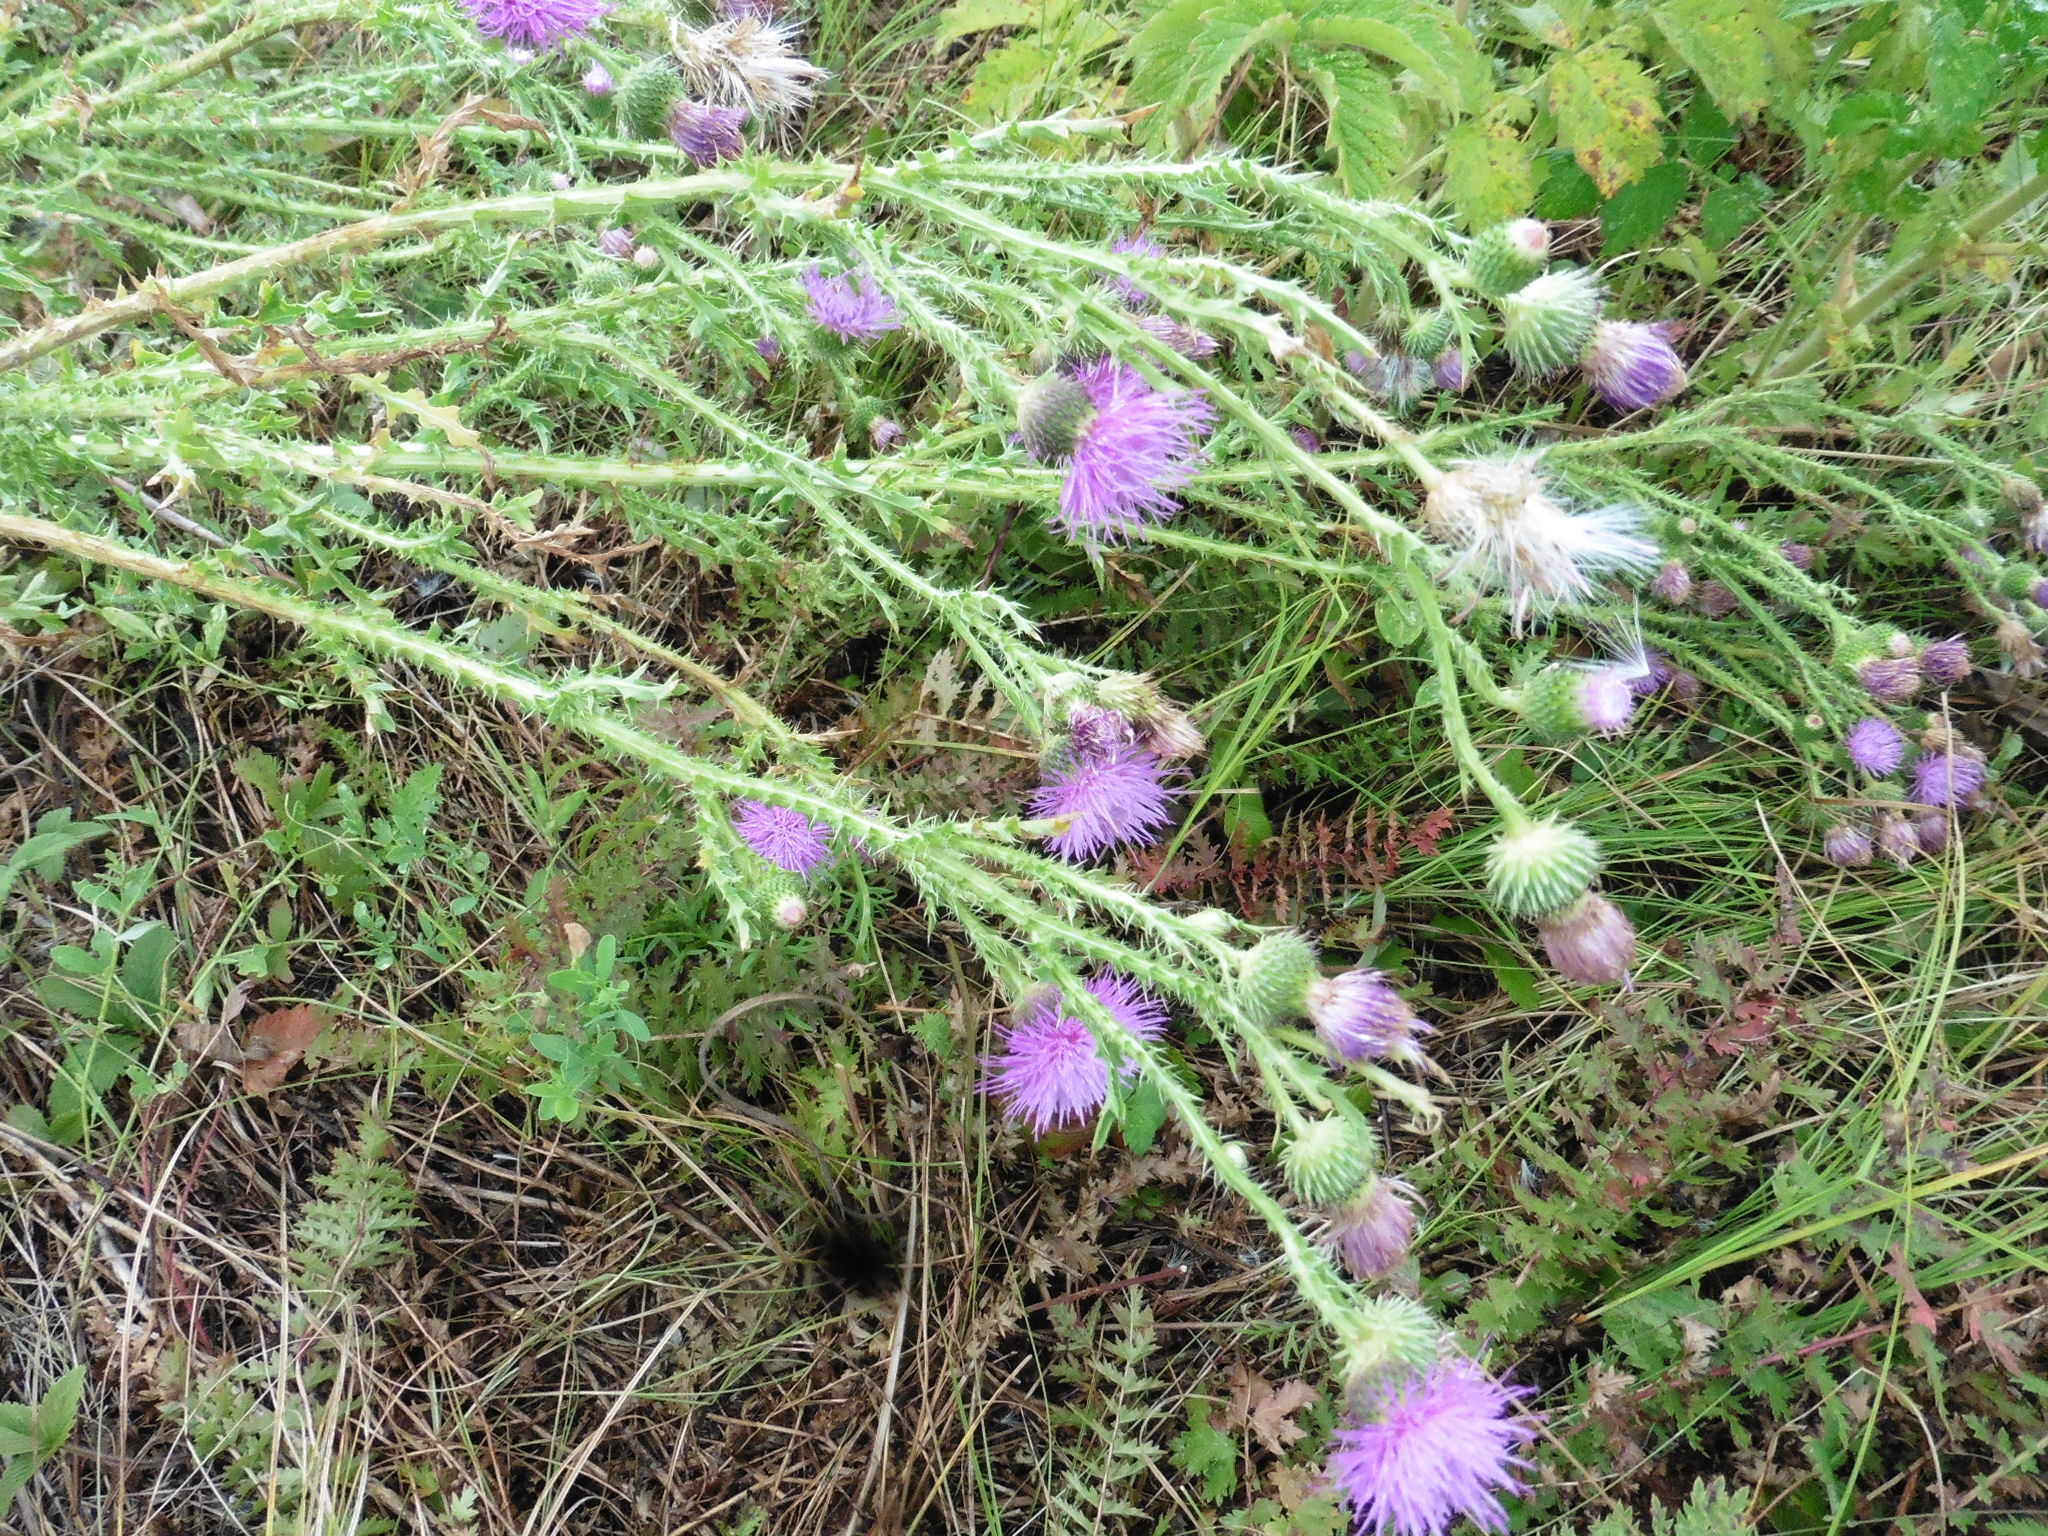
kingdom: Plantae
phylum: Tracheophyta
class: Magnoliopsida
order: Asterales
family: Asteraceae
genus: Carduus
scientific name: Carduus acanthoides
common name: Plumeless thistle
